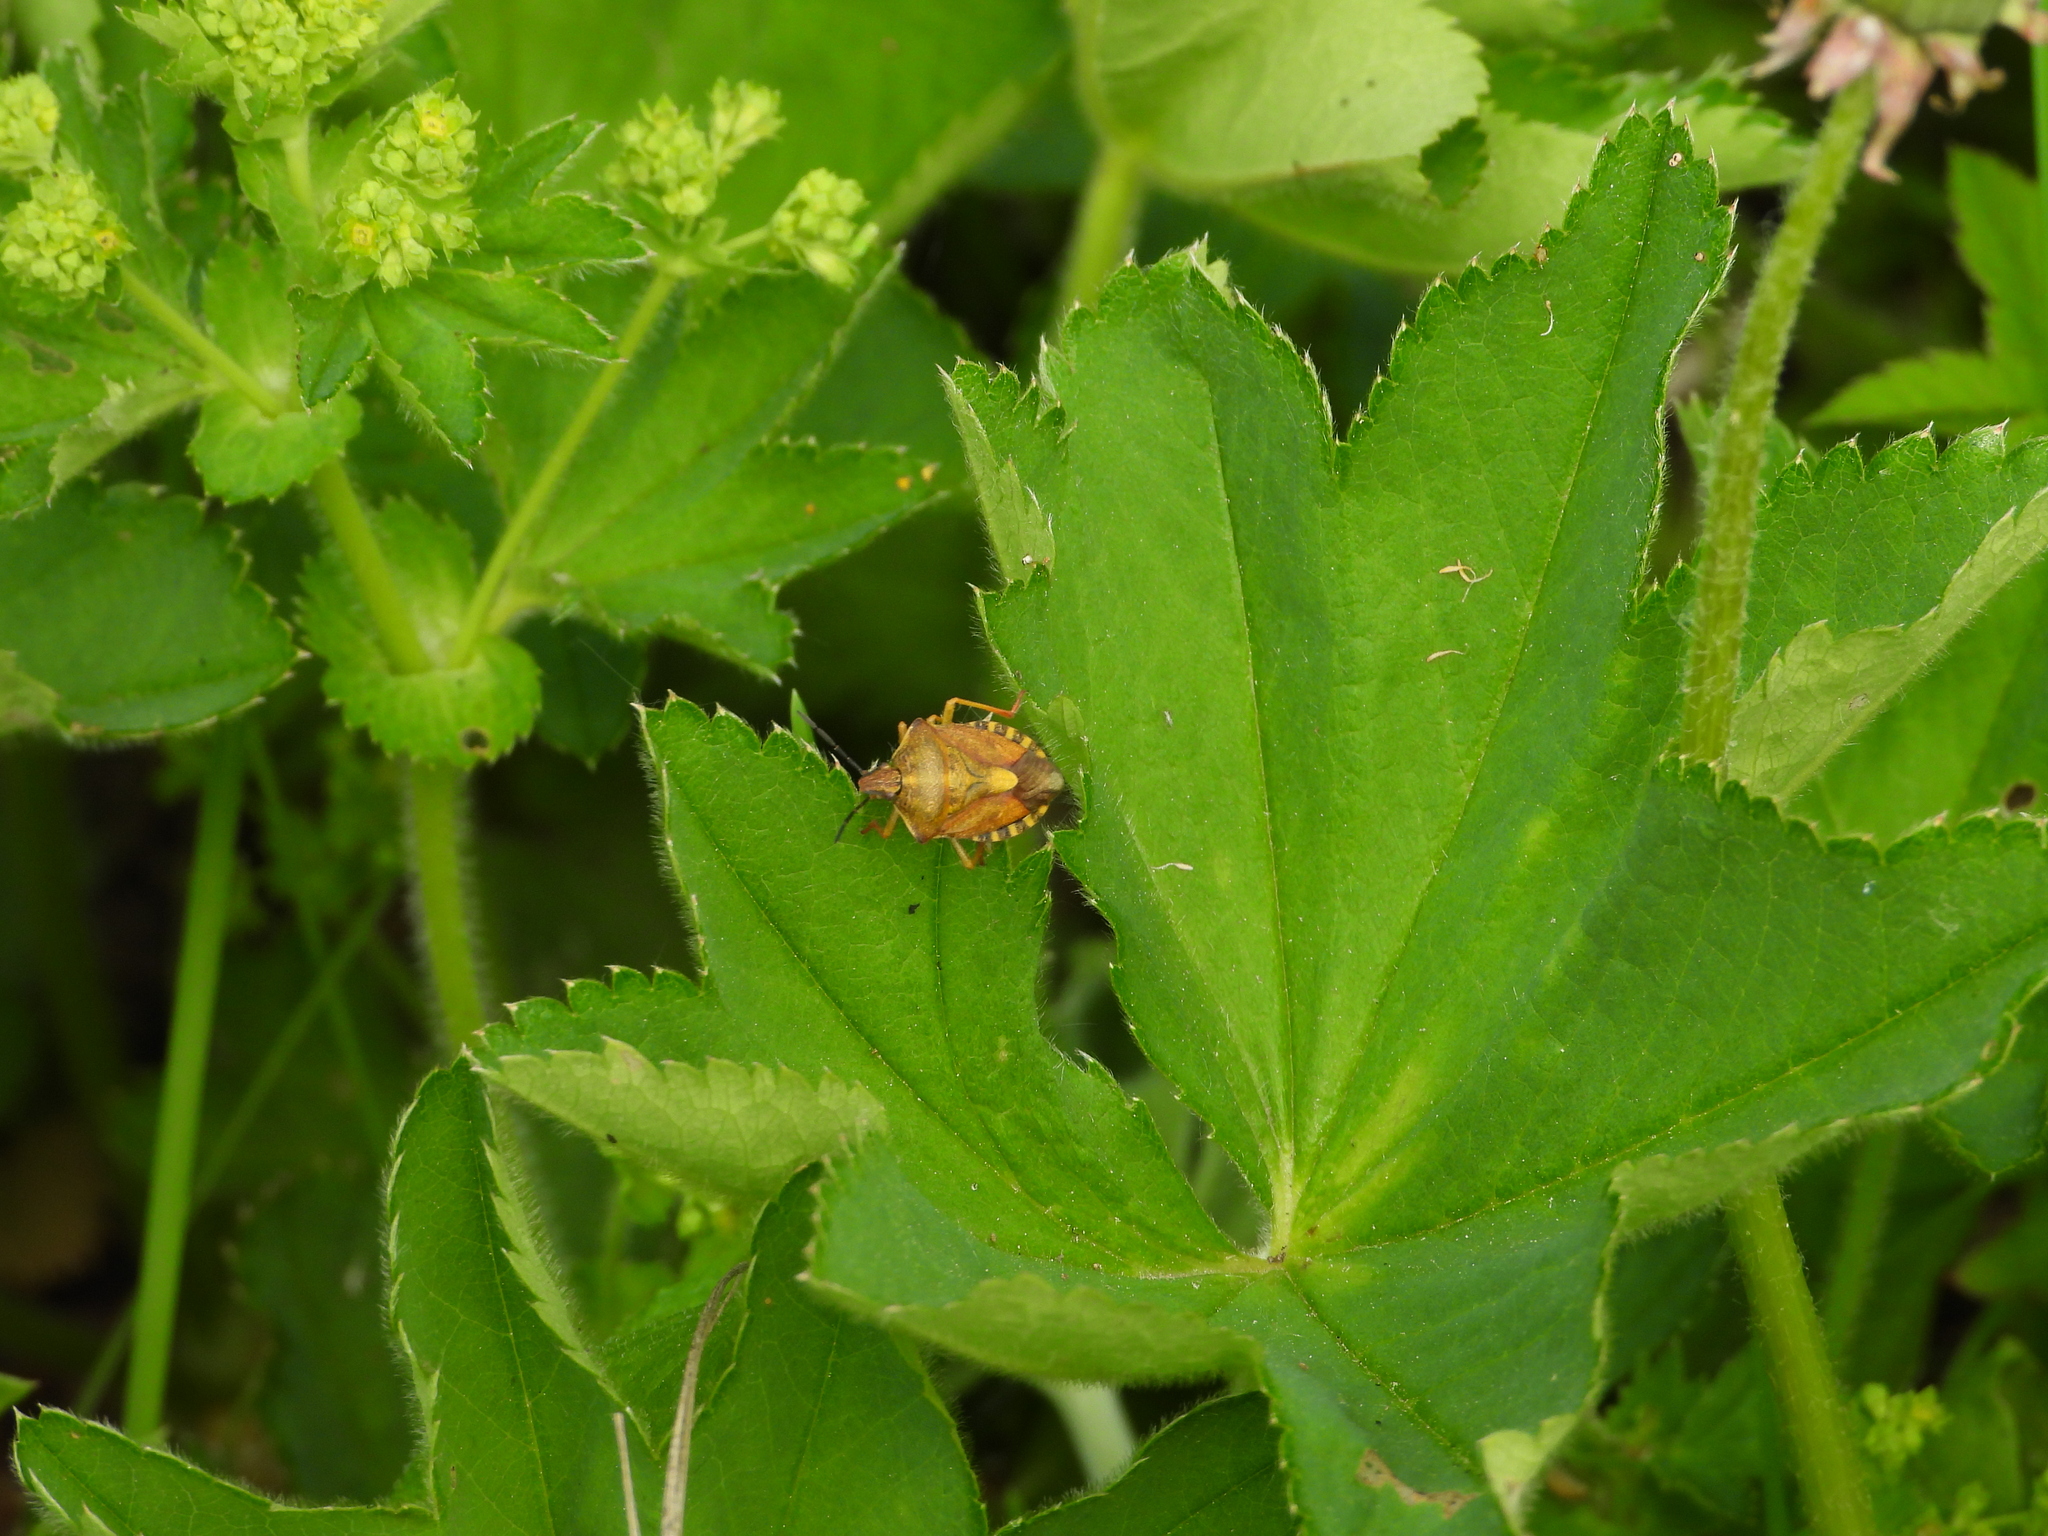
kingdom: Animalia
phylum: Arthropoda
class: Insecta
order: Hemiptera
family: Pentatomidae
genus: Carpocoris
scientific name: Carpocoris purpureipennis
